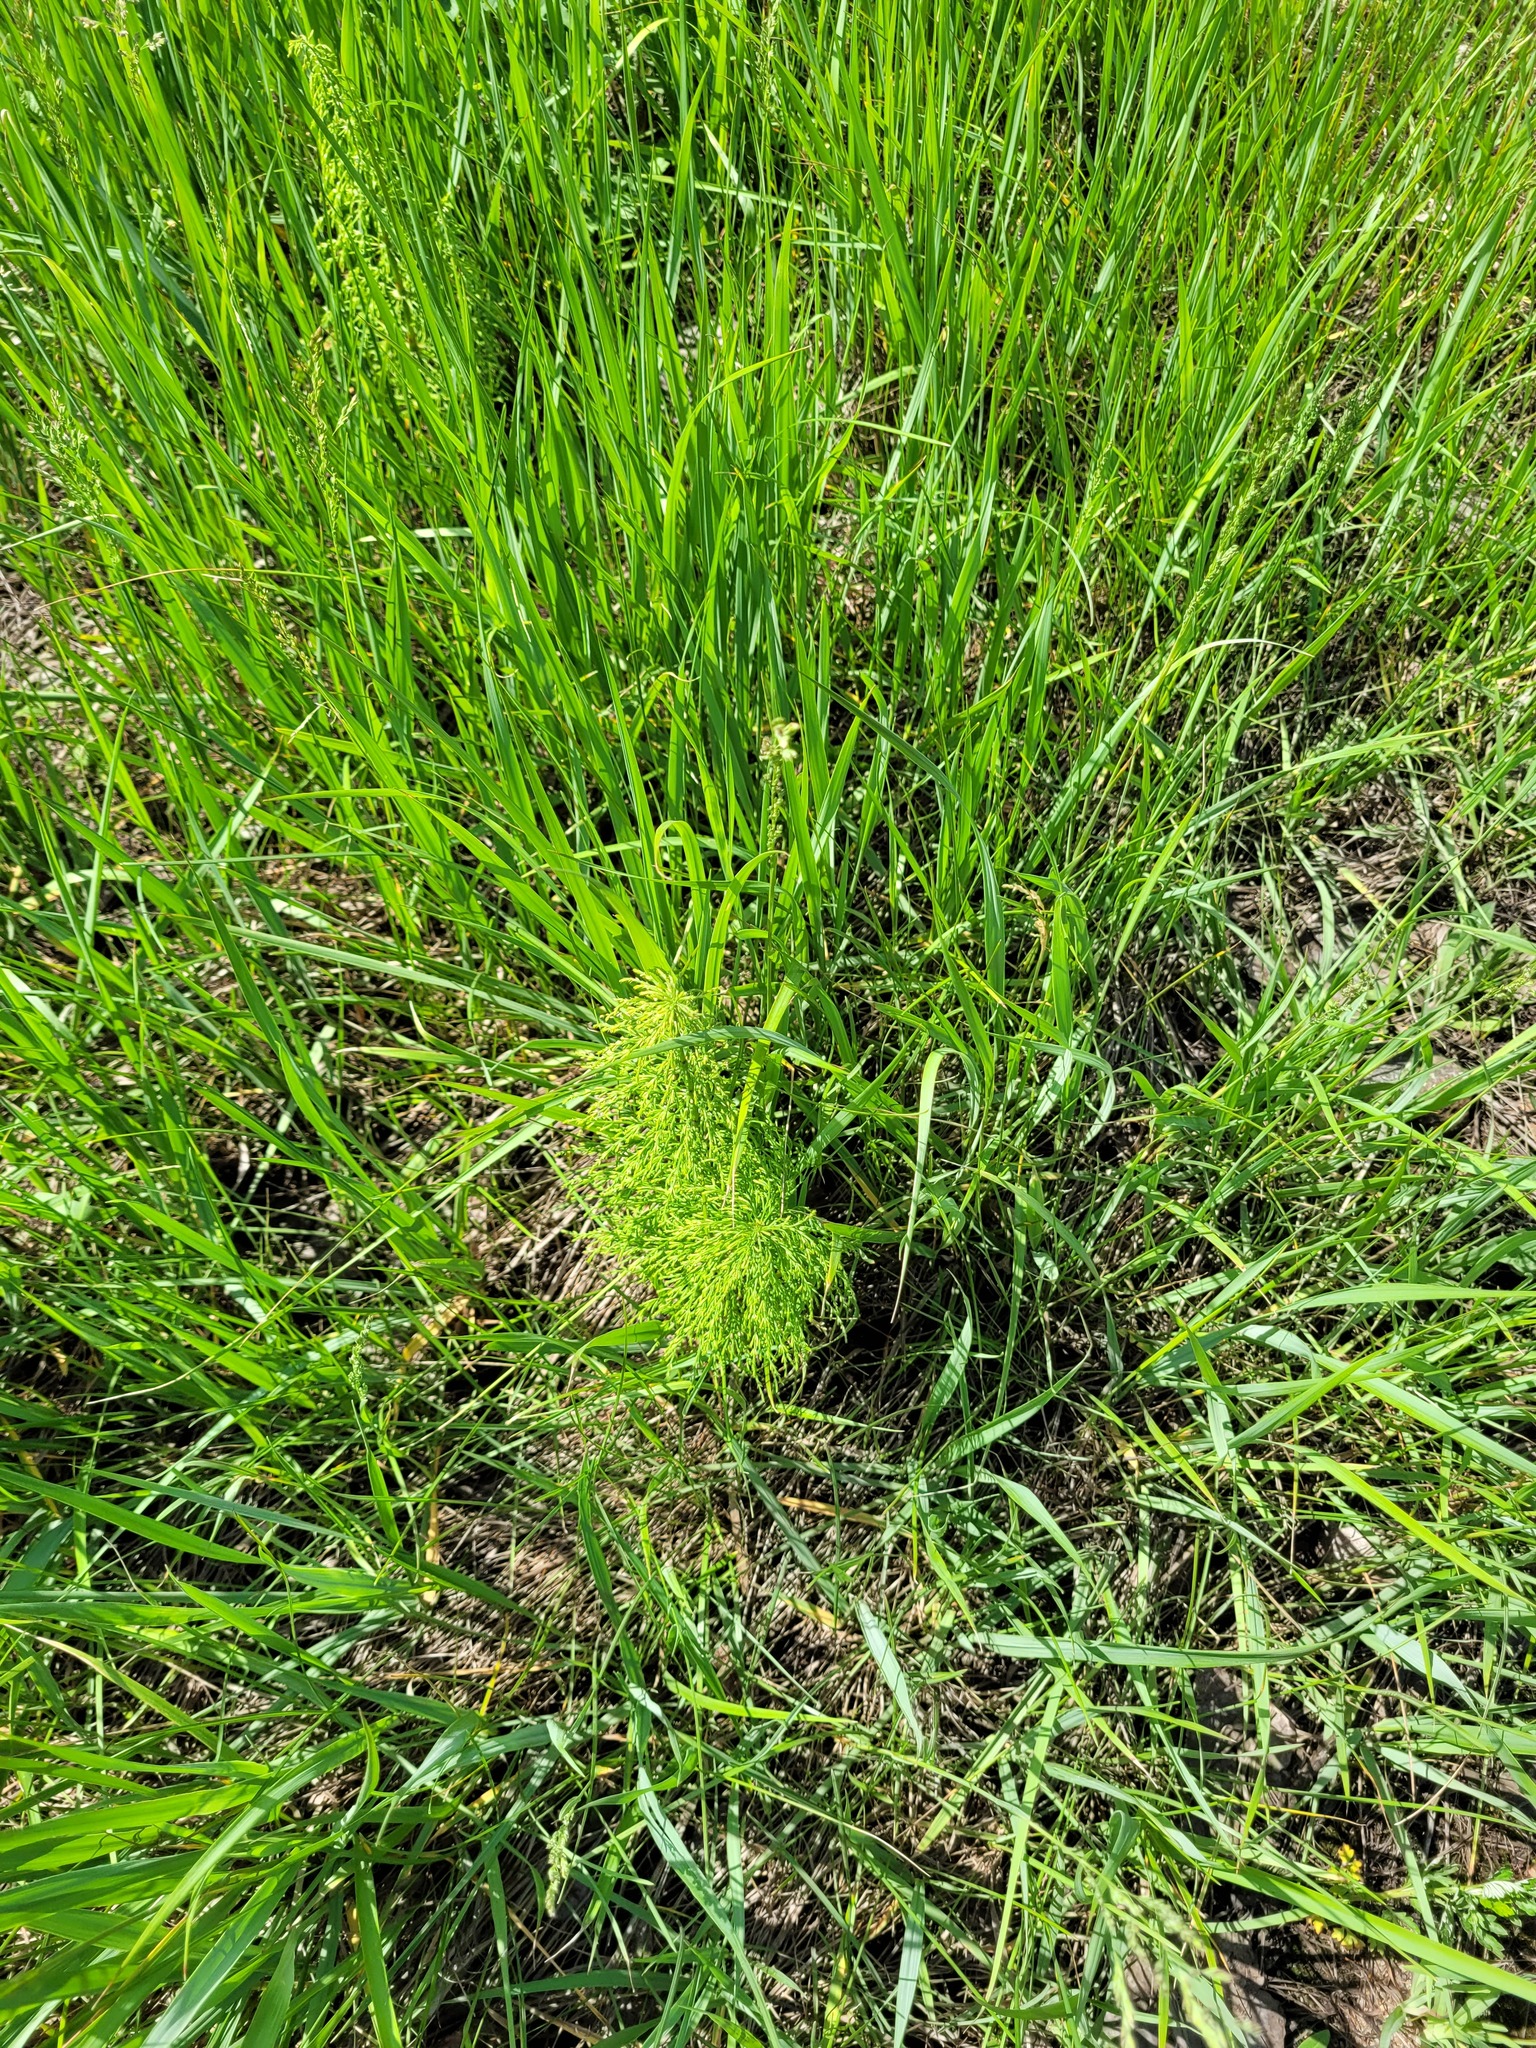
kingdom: Plantae
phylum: Tracheophyta
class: Polypodiopsida
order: Equisetales
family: Equisetaceae
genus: Equisetum
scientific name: Equisetum sylvaticum
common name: Wood horsetail
